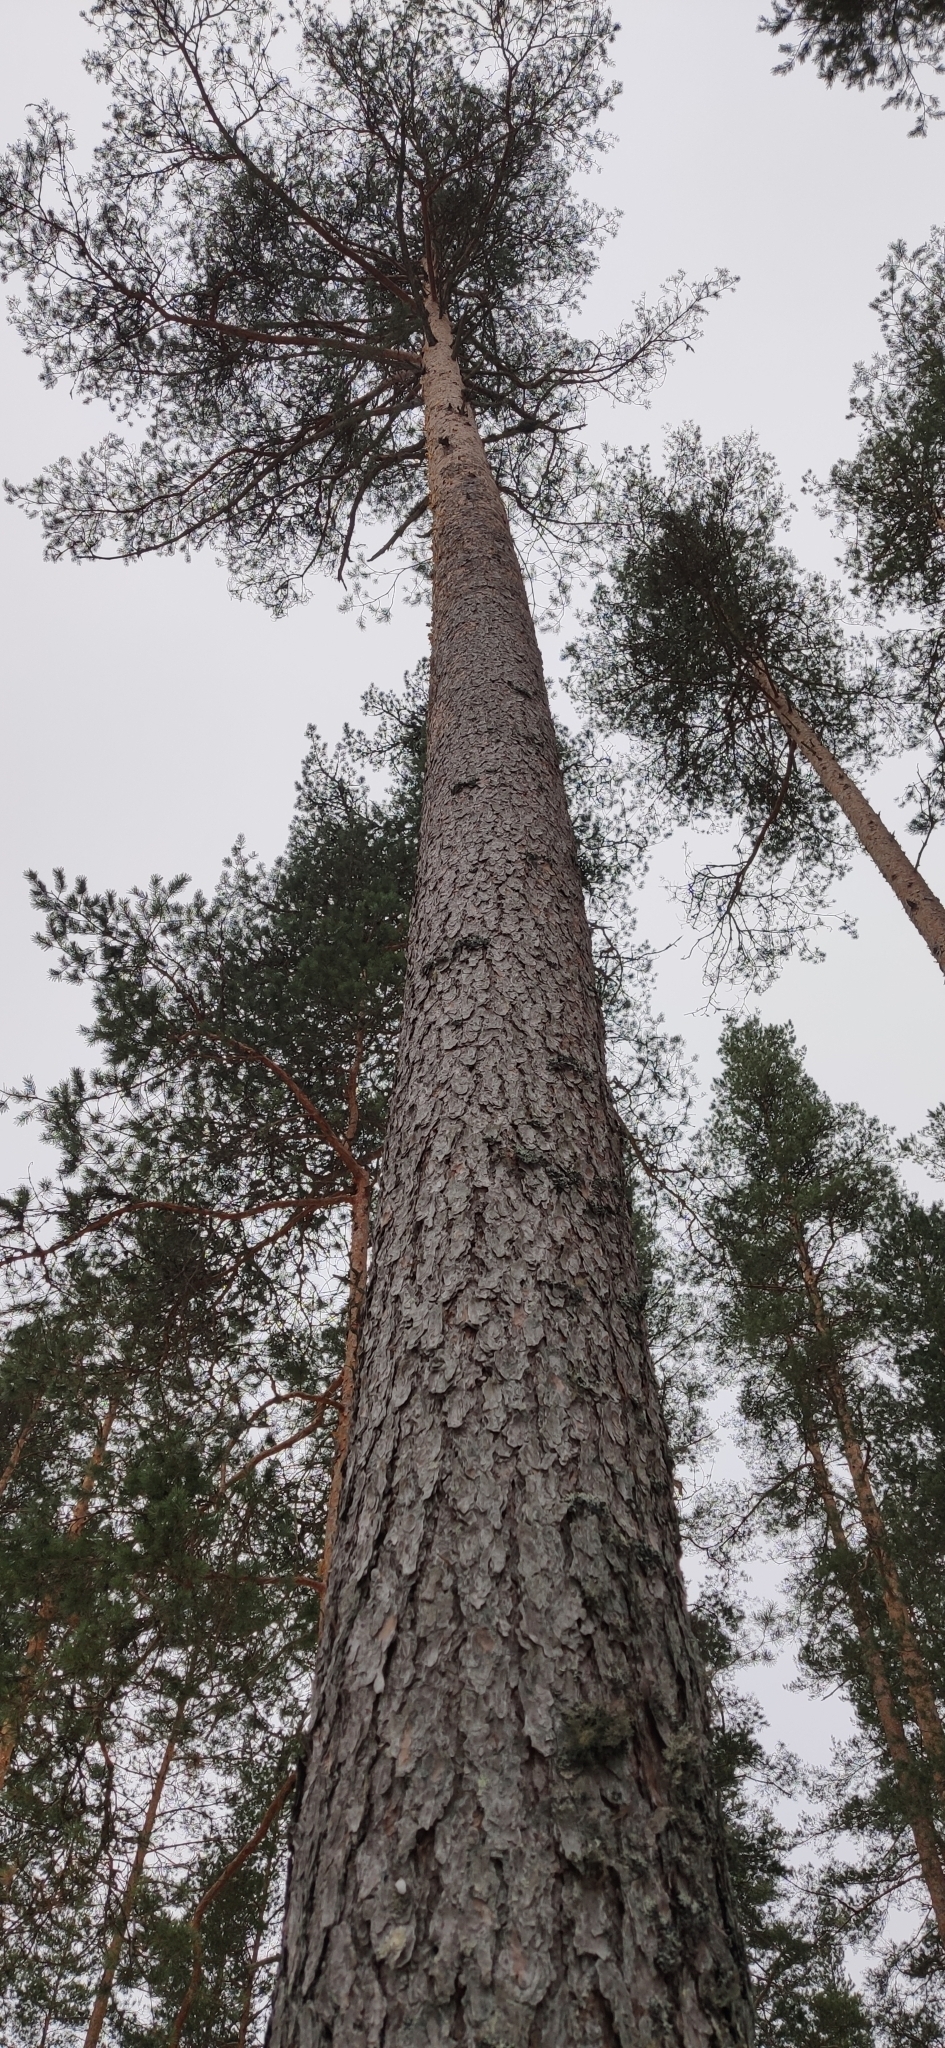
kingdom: Plantae
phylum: Tracheophyta
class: Pinopsida
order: Pinales
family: Pinaceae
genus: Pinus
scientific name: Pinus sylvestris
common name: Scots pine
